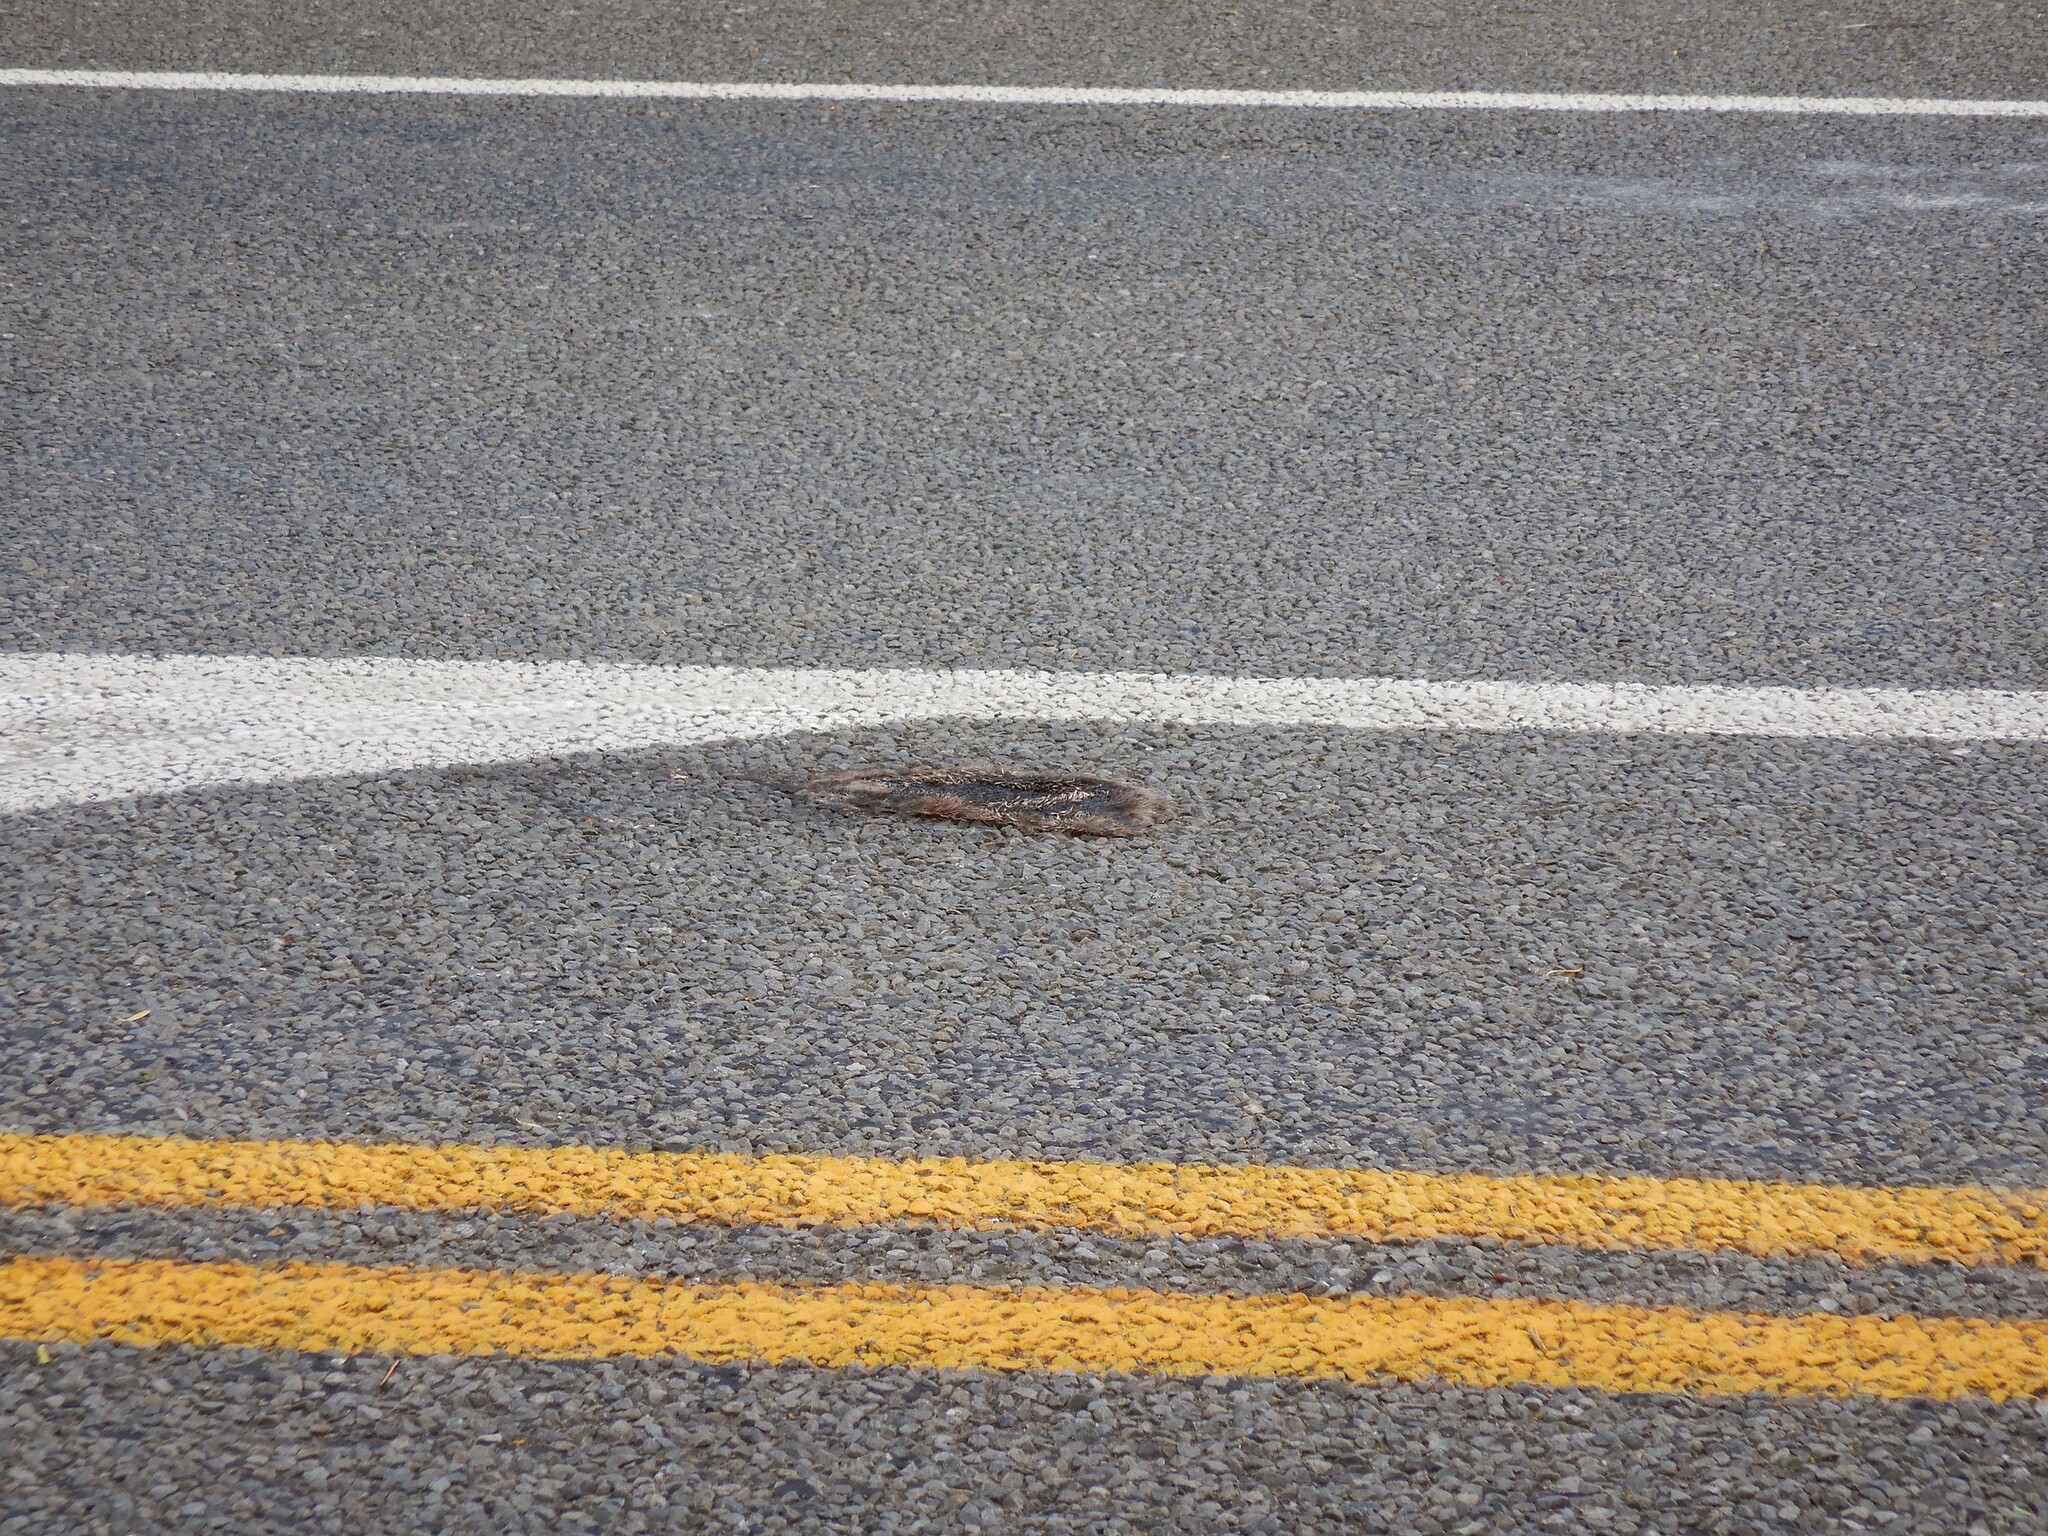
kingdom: Animalia
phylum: Chordata
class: Mammalia
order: Erinaceomorpha
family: Erinaceidae
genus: Erinaceus
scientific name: Erinaceus europaeus
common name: West european hedgehog
